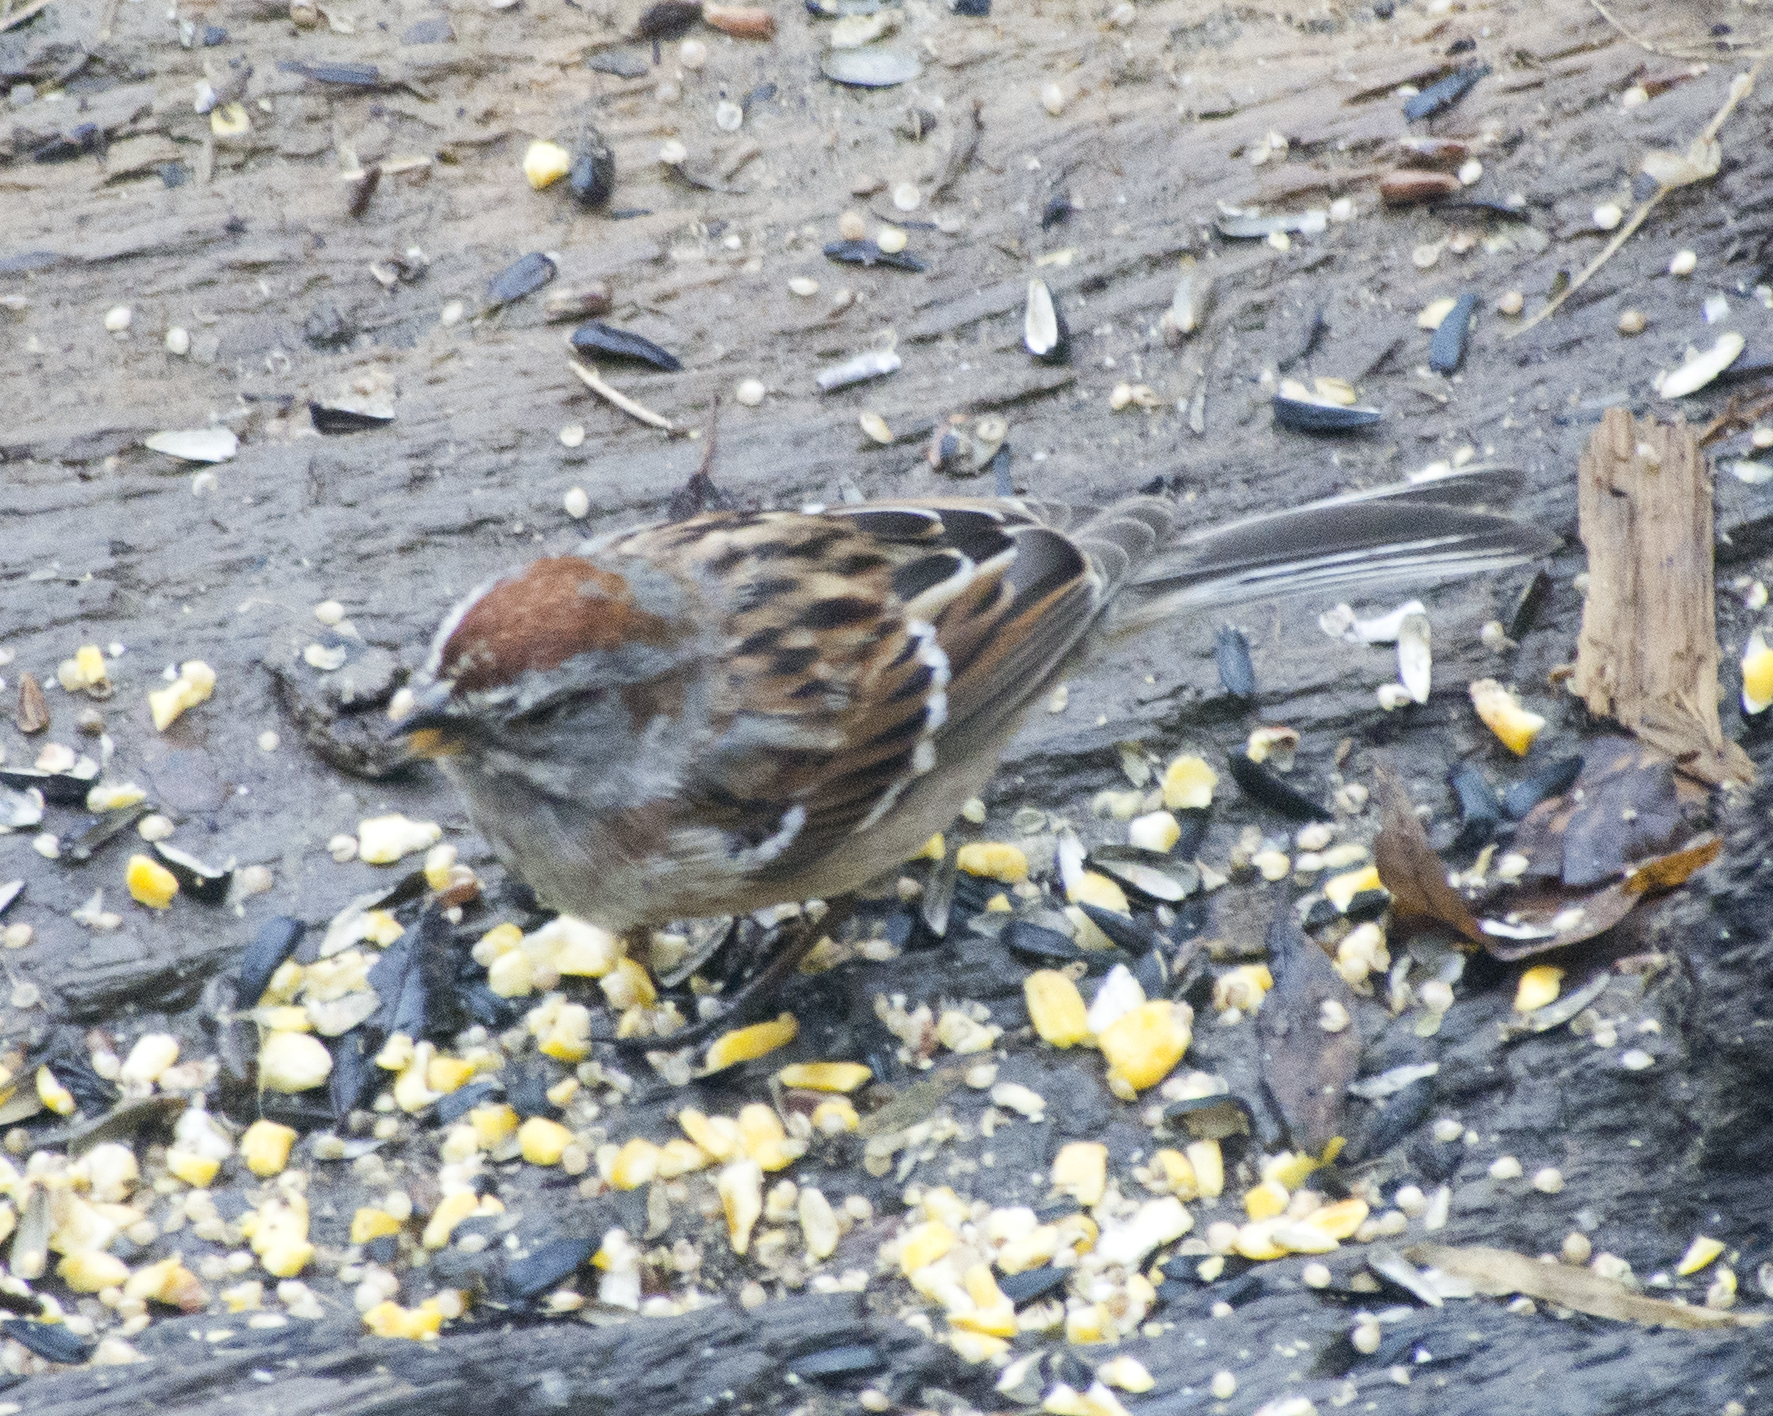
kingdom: Animalia
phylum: Chordata
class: Aves
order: Passeriformes
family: Passerellidae
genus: Spizelloides
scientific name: Spizelloides arborea
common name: American tree sparrow
